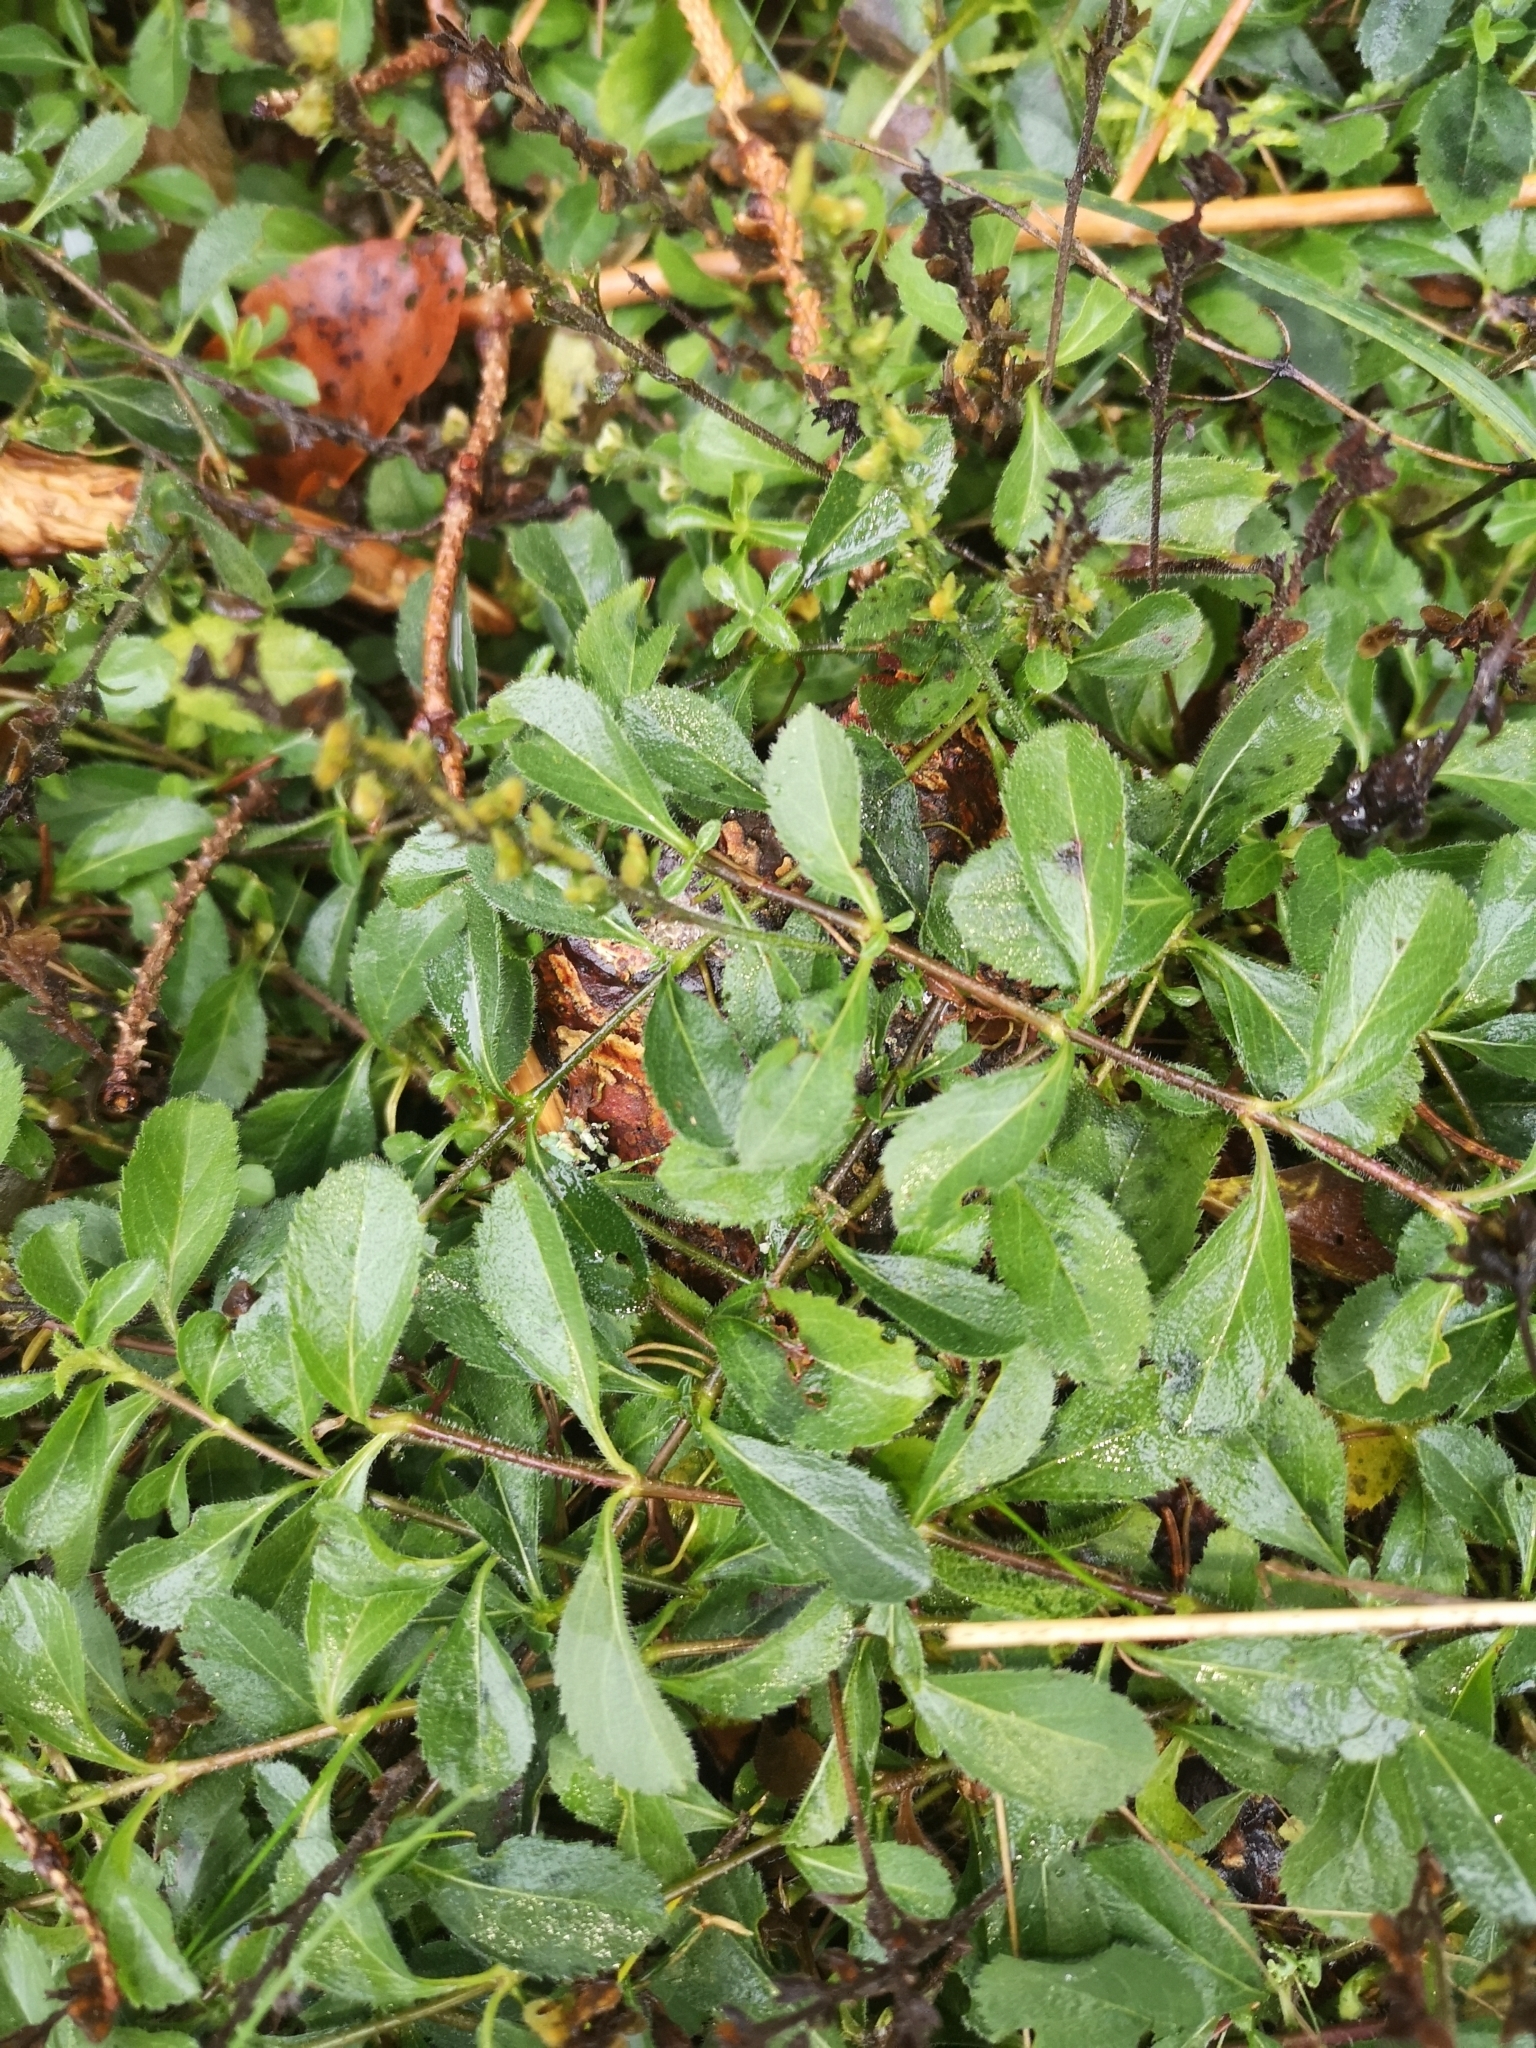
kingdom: Plantae
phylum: Tracheophyta
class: Magnoliopsida
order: Lamiales
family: Plantaginaceae
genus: Veronica
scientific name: Veronica officinalis
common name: Common speedwell
